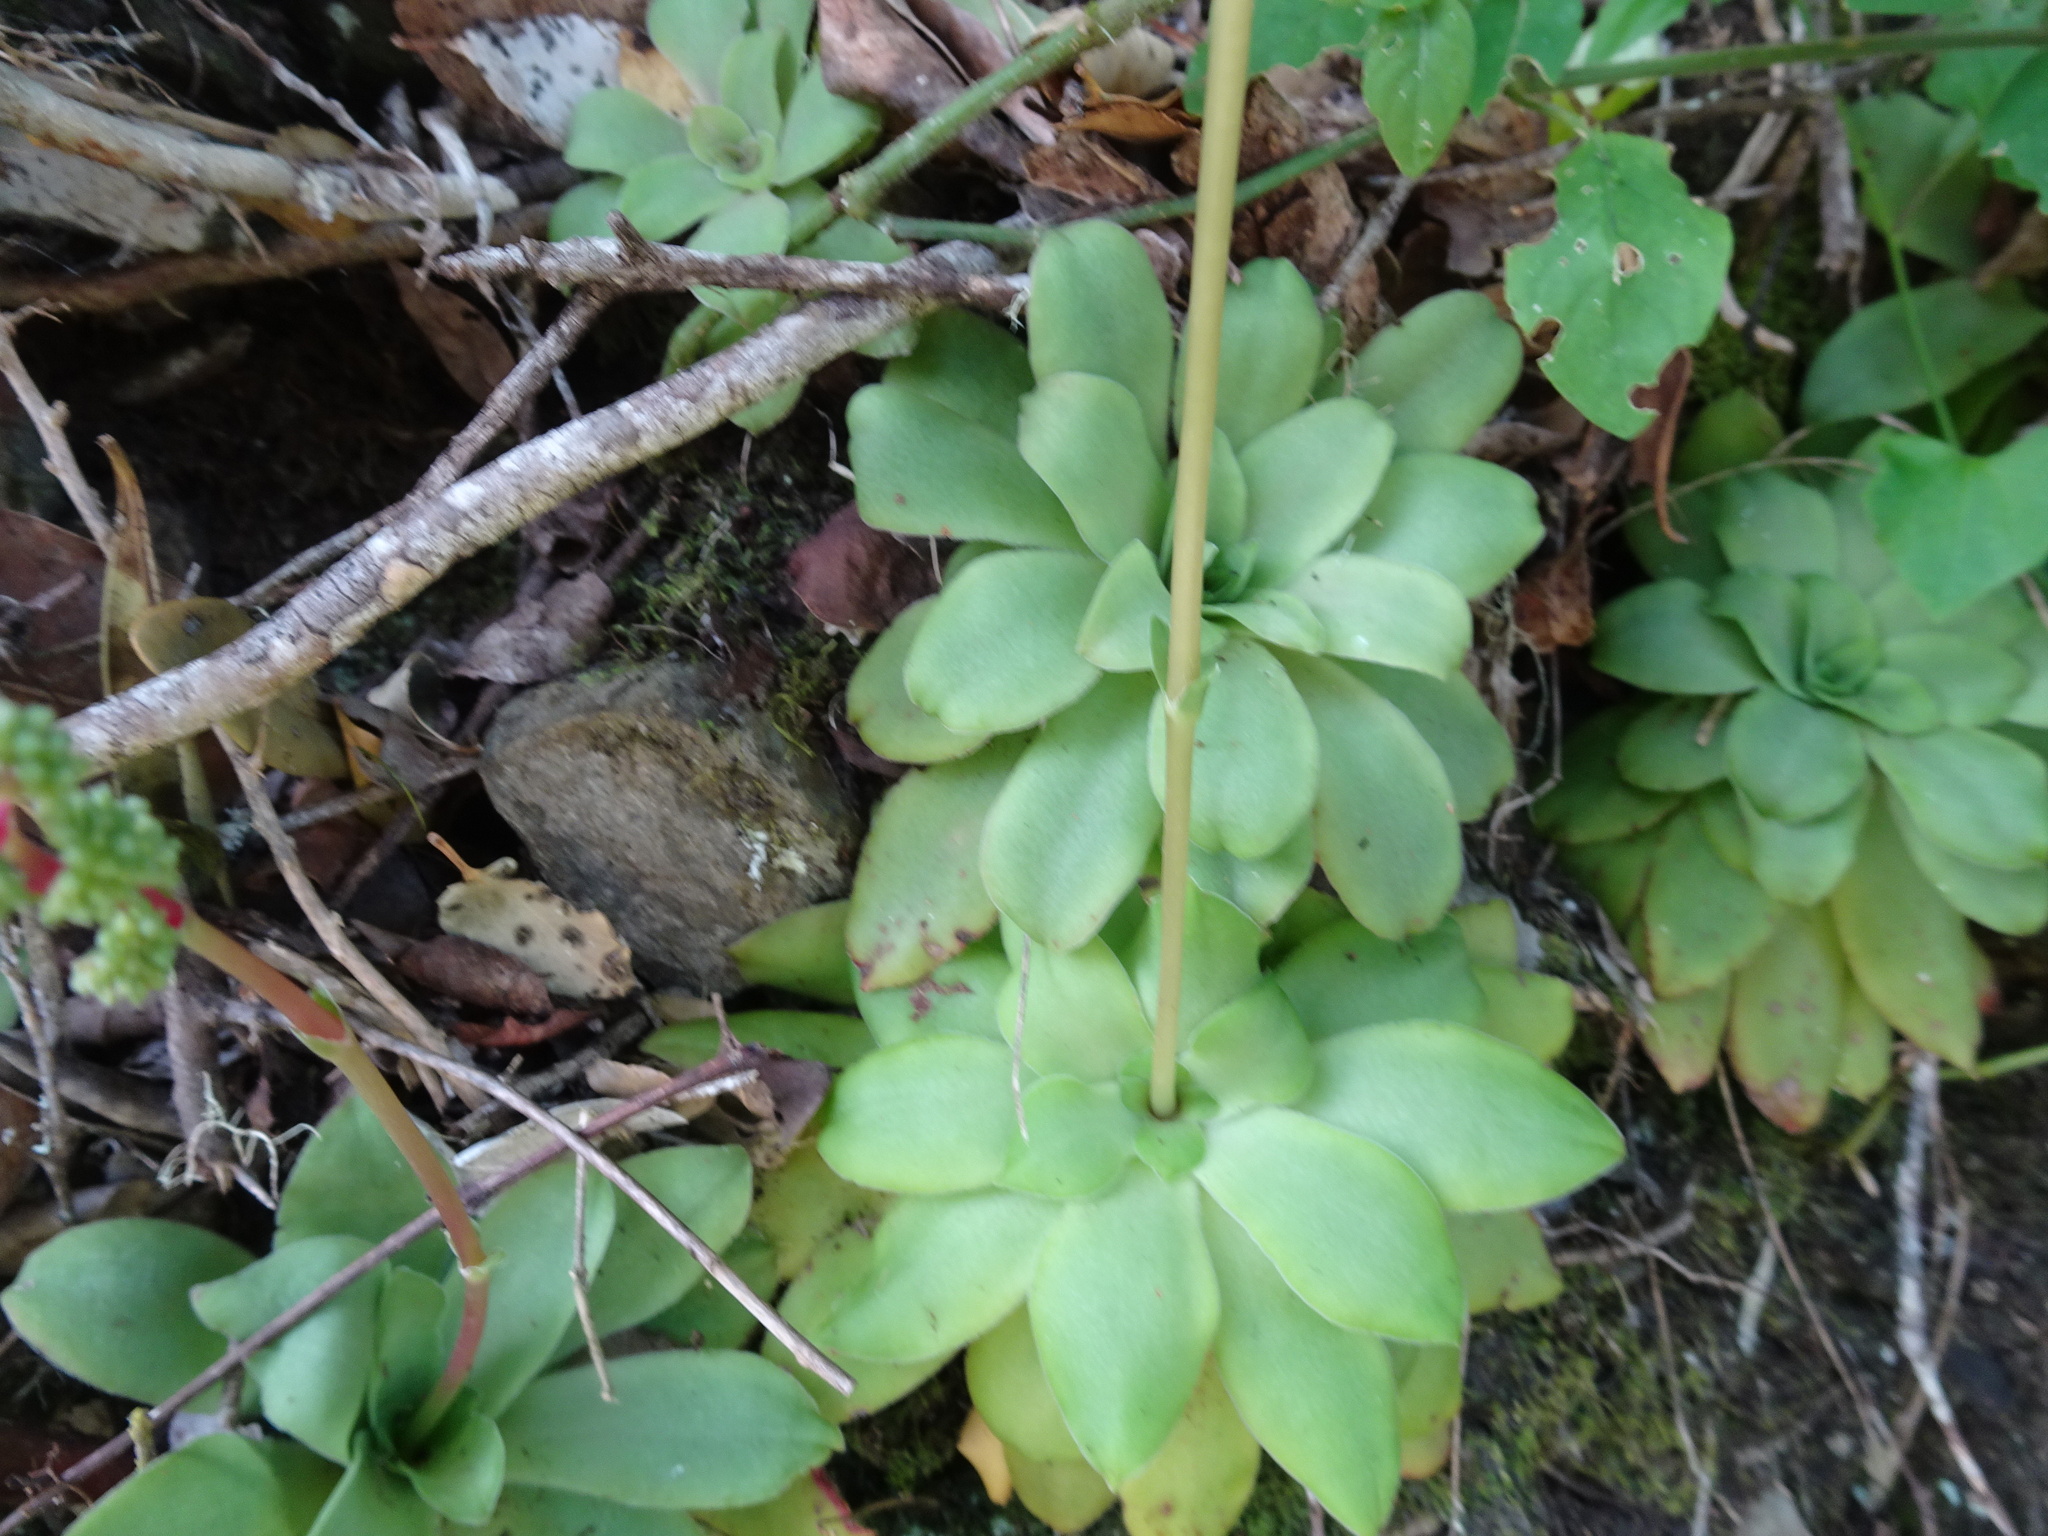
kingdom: Plantae
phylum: Tracheophyta
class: Magnoliopsida
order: Saxifragales
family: Crassulaceae
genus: Crassula
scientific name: Crassula orbicularis
